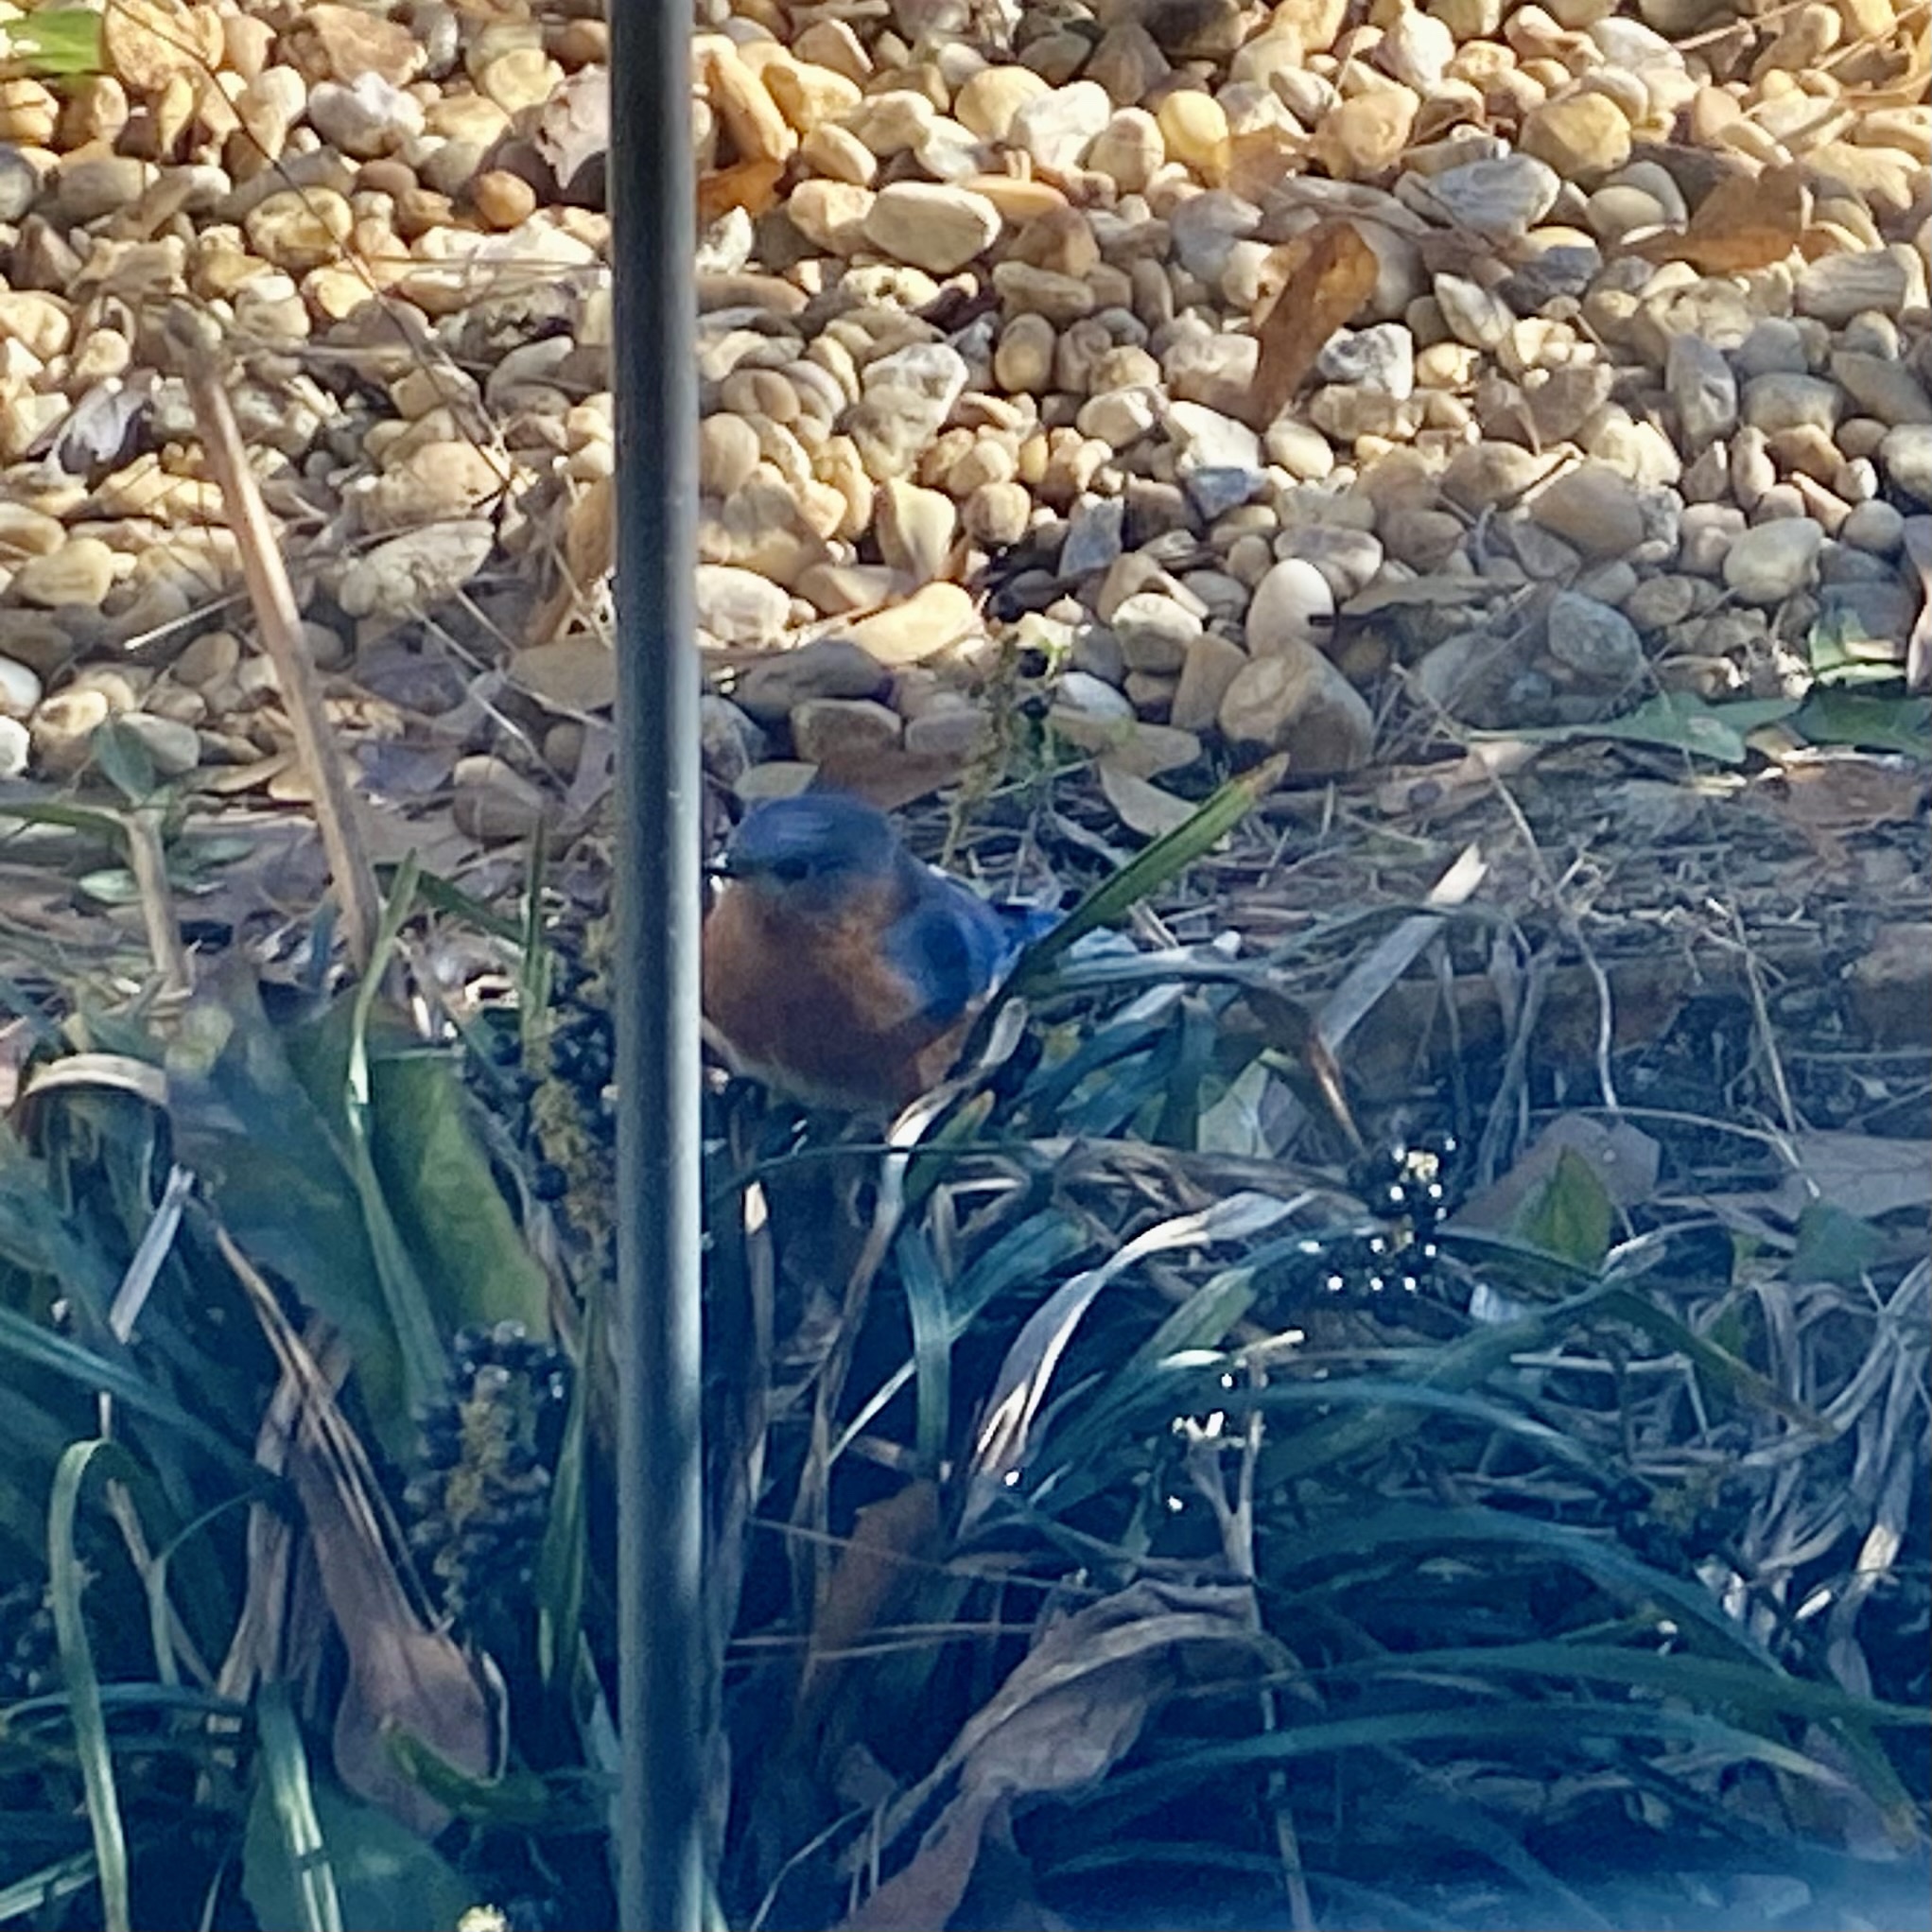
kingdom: Animalia
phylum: Chordata
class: Aves
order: Passeriformes
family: Turdidae
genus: Sialia
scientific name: Sialia sialis
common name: Eastern bluebird
